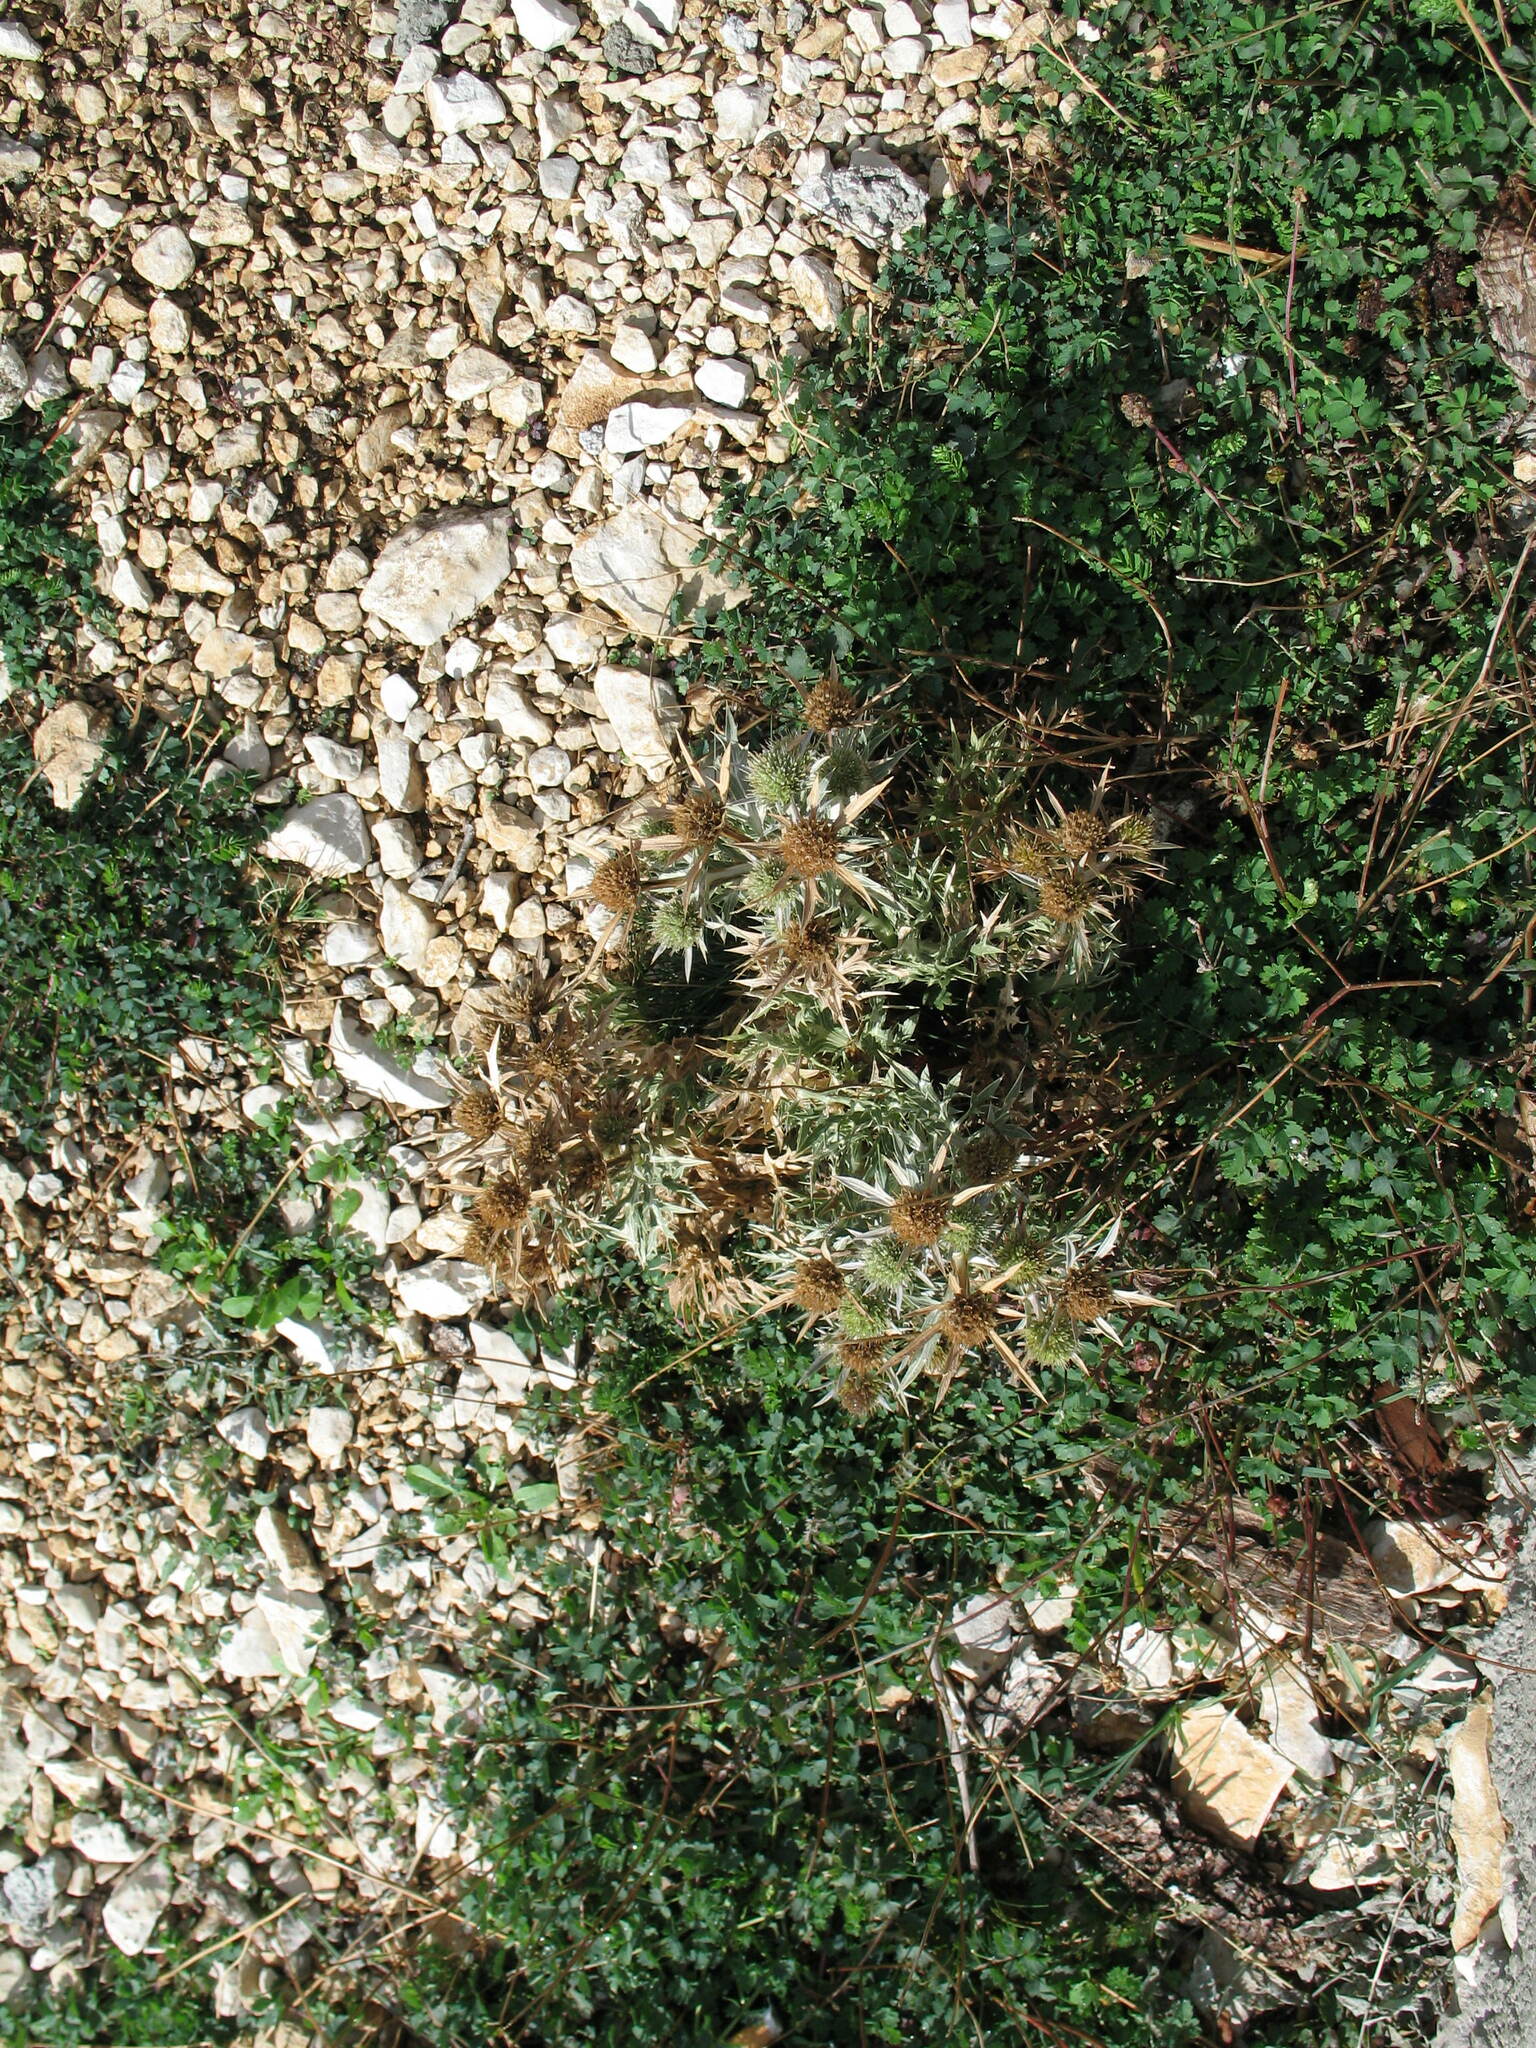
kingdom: Plantae
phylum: Tracheophyta
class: Magnoliopsida
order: Apiales
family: Apiaceae
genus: Eryngium
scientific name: Eryngium campestre
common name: Field eryngo
